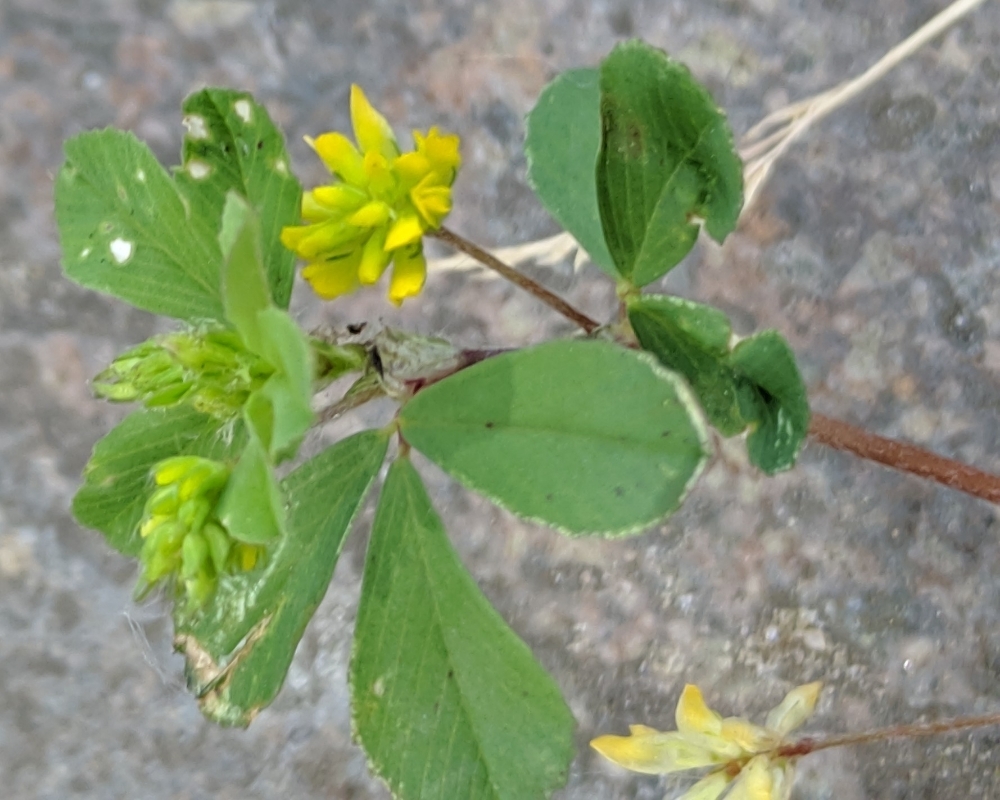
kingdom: Plantae
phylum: Tracheophyta
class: Magnoliopsida
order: Fabales
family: Fabaceae
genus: Trifolium
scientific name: Trifolium dubium
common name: Suckling clover
